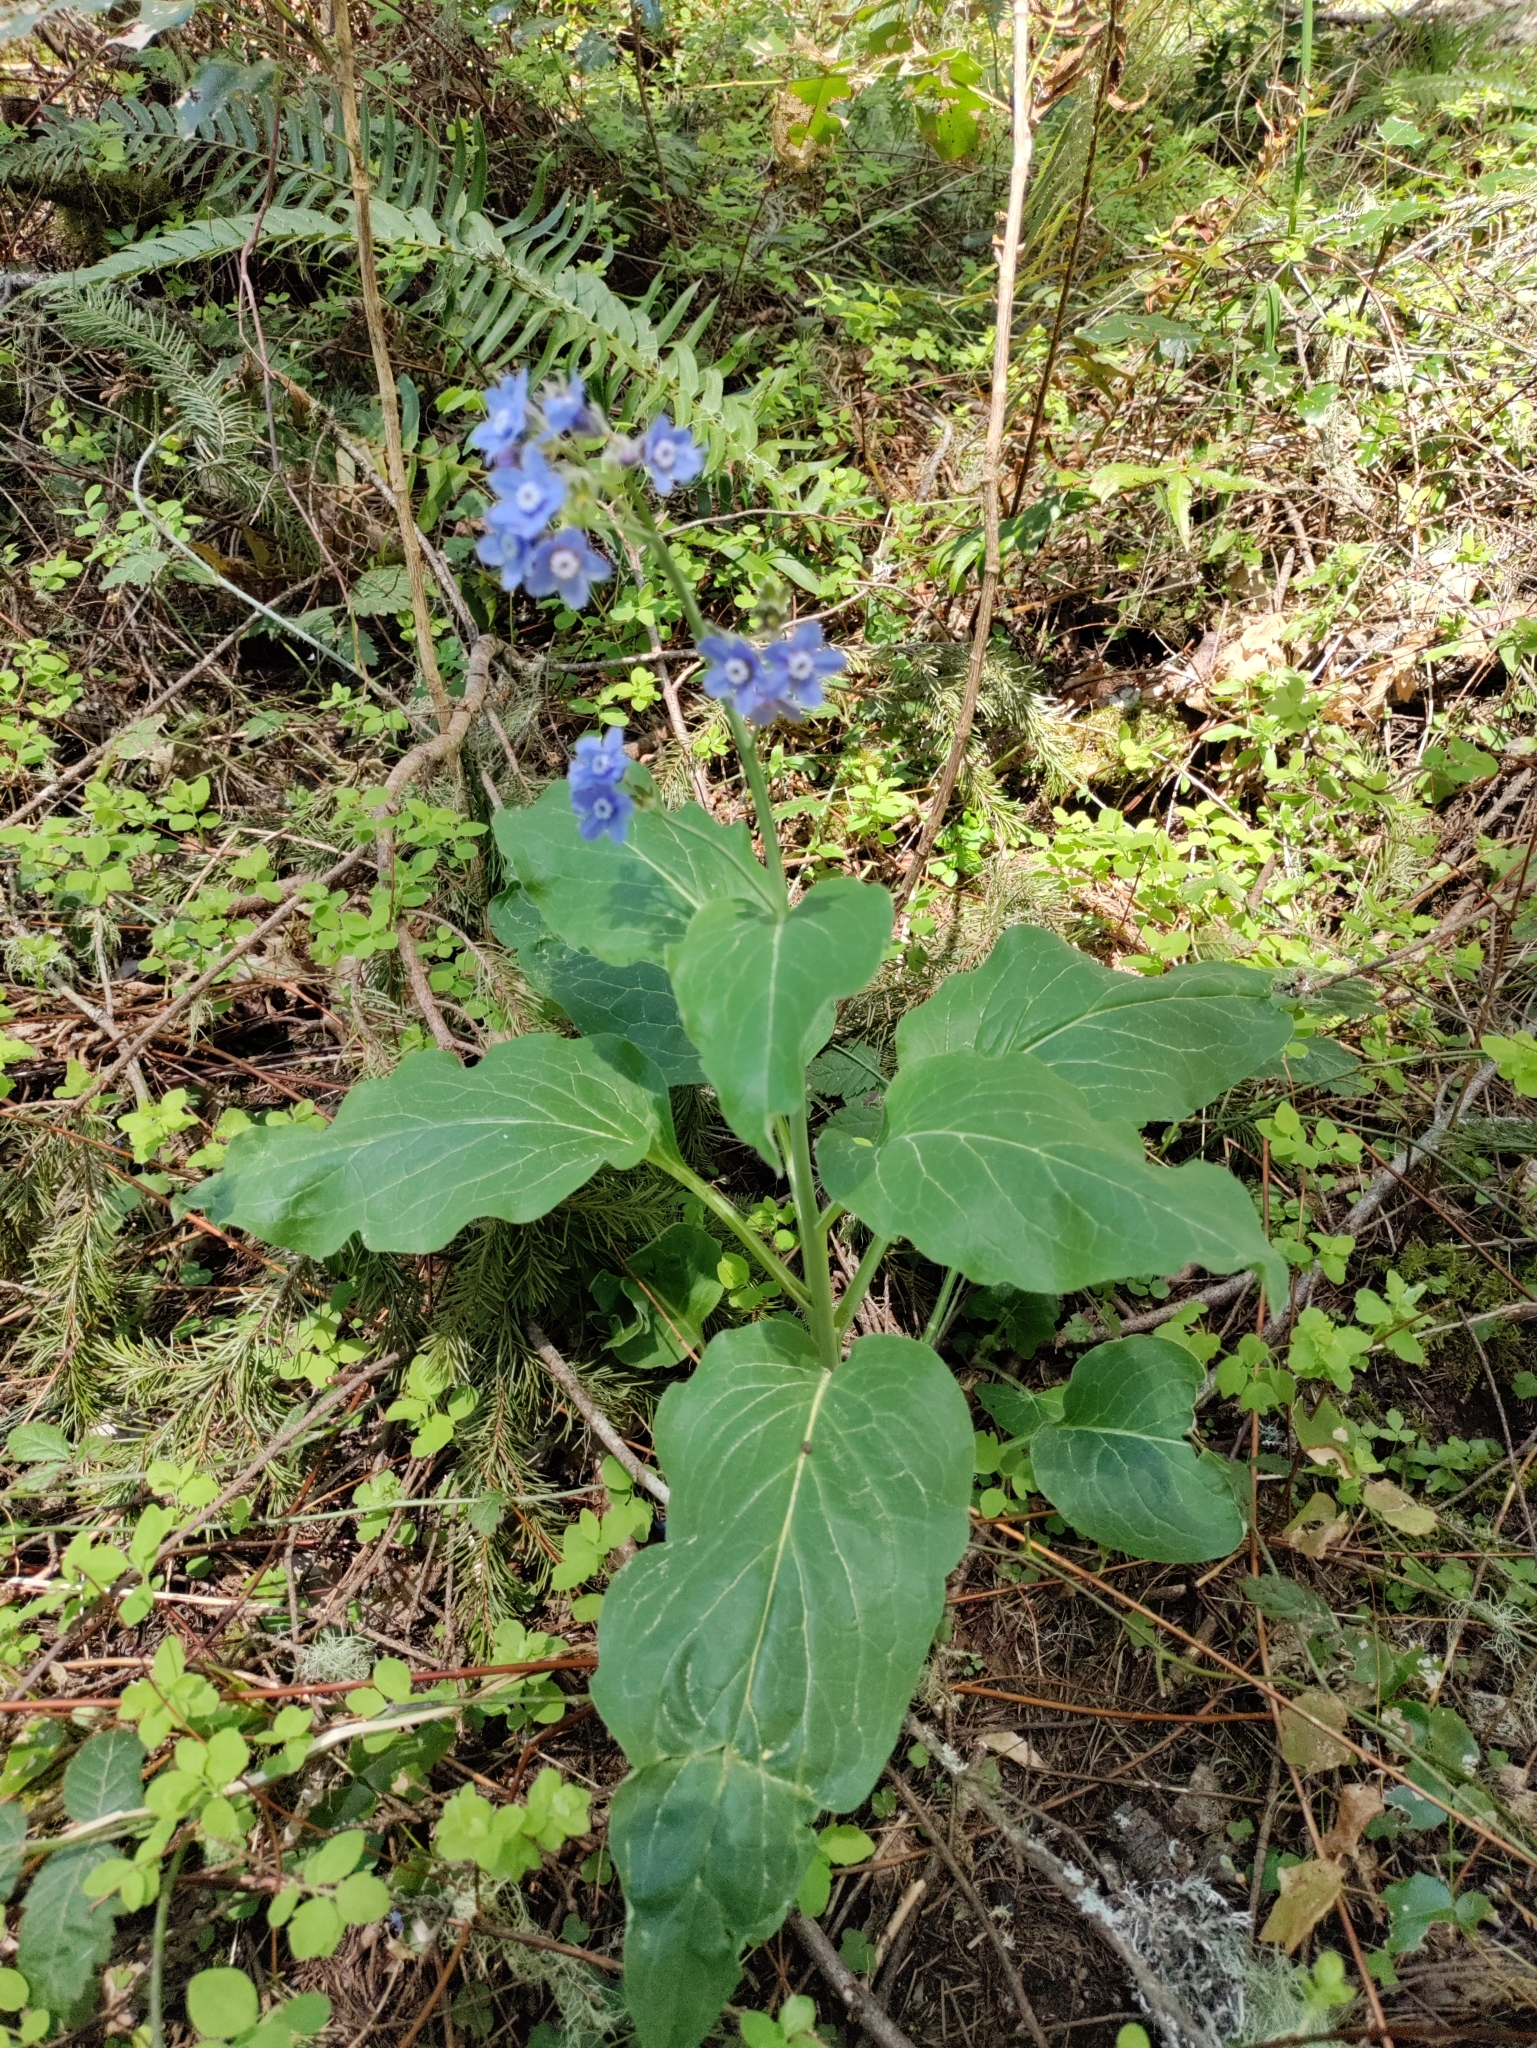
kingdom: Plantae
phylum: Tracheophyta
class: Magnoliopsida
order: Boraginales
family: Boraginaceae
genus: Adelinia
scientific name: Adelinia grande
